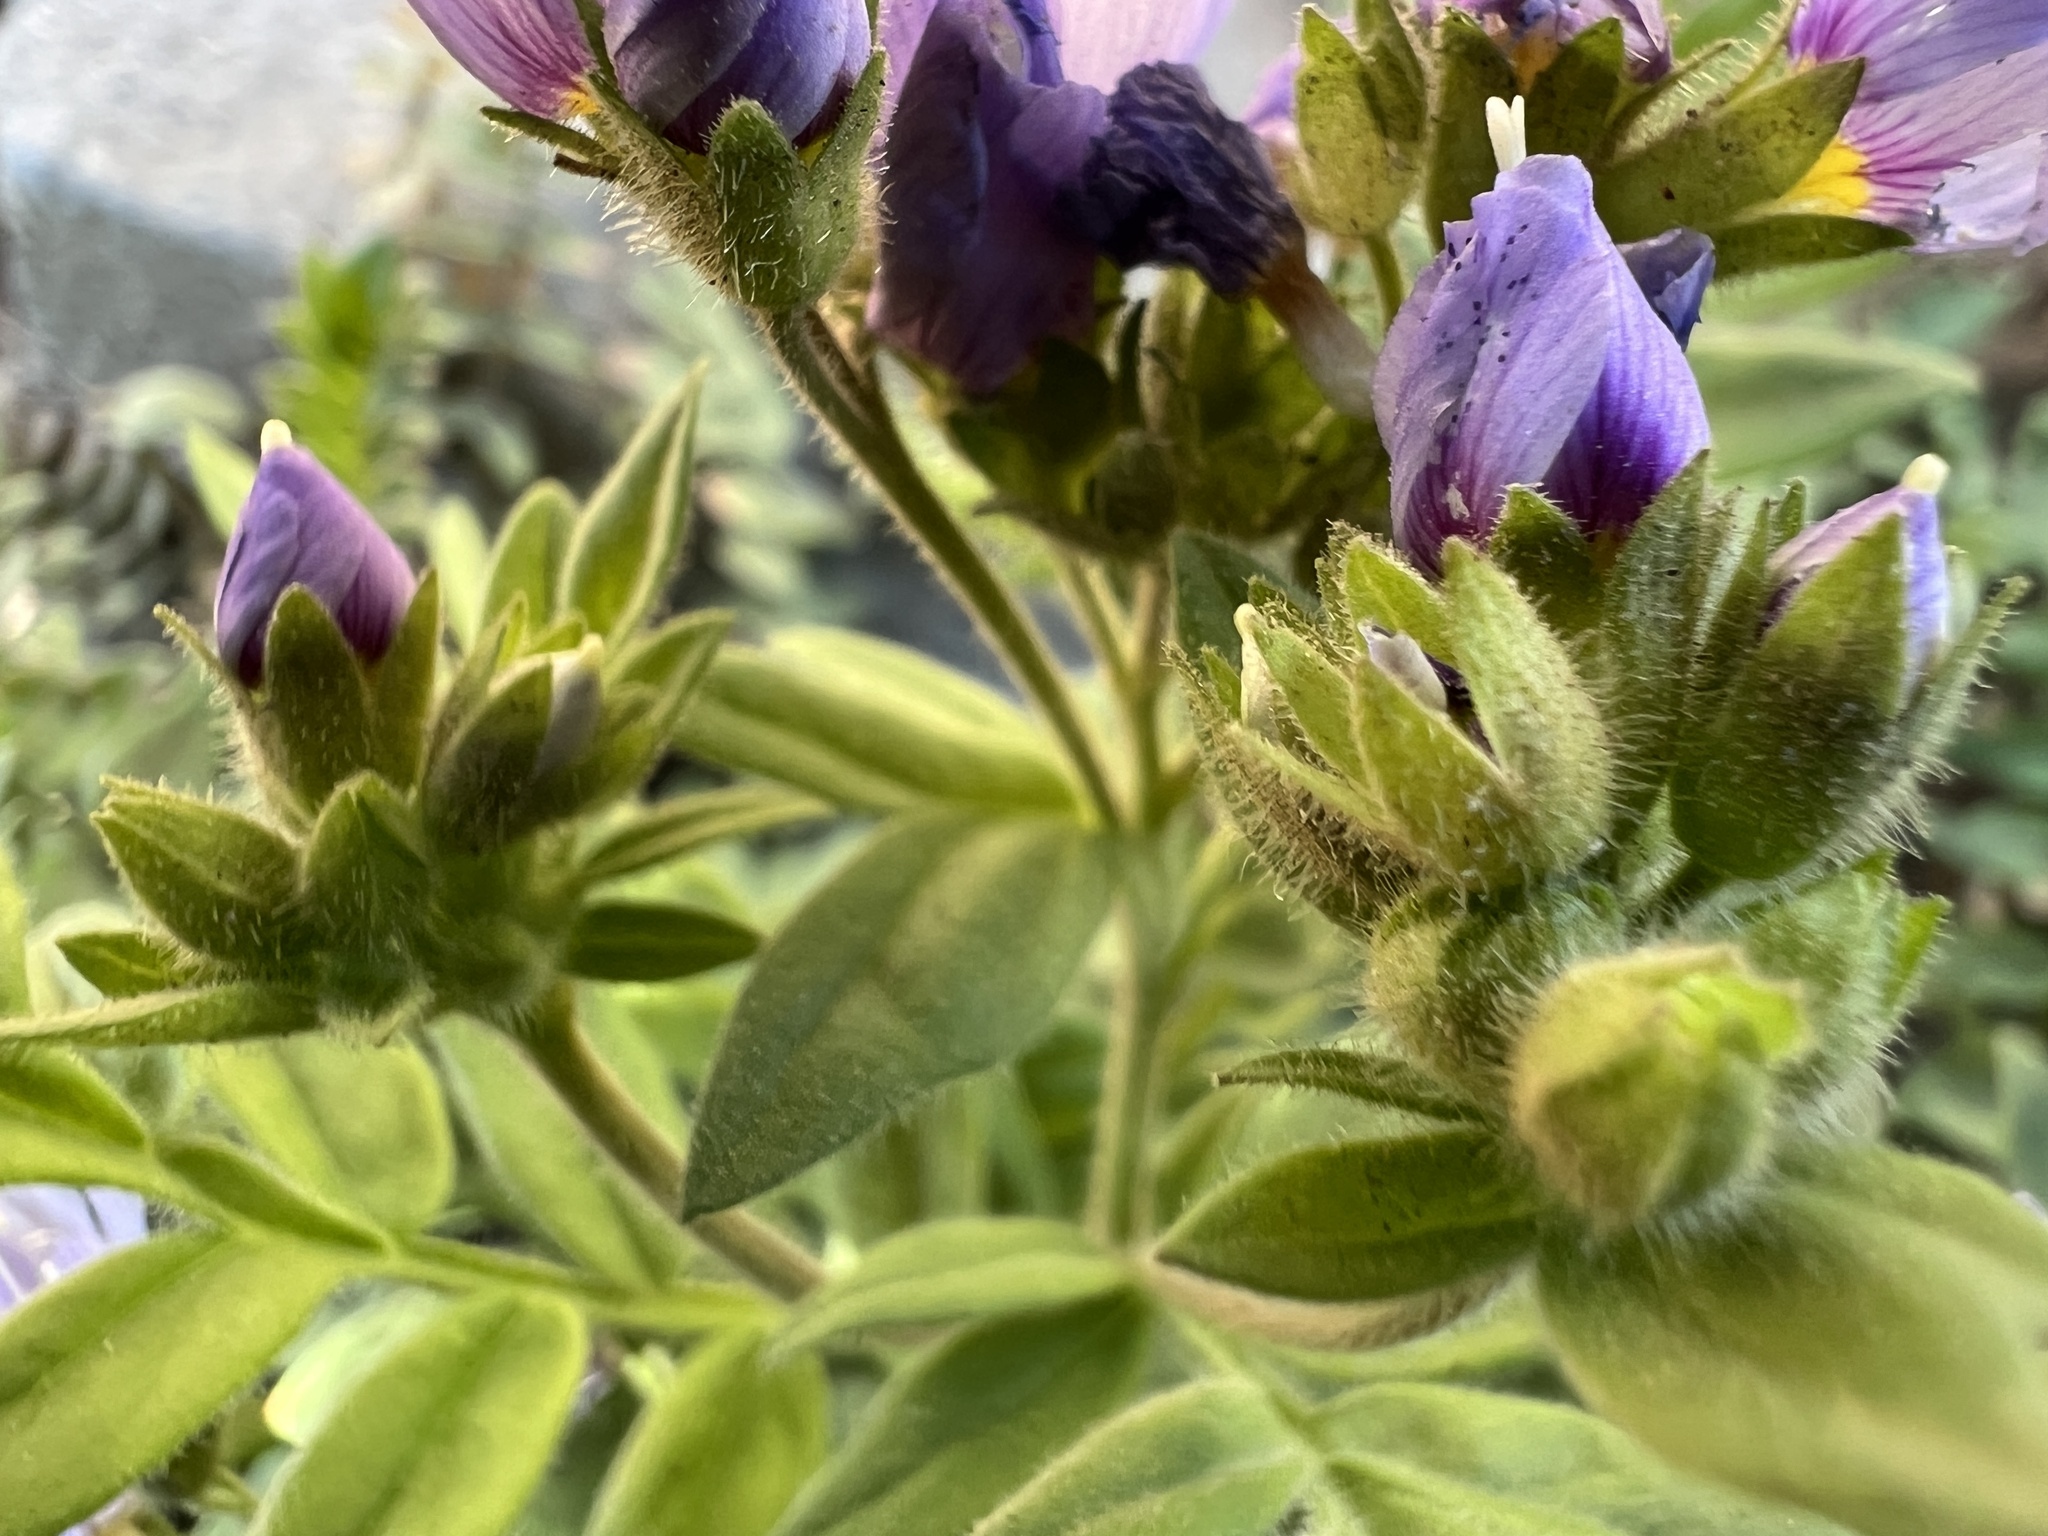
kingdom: Plantae
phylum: Tracheophyta
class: Magnoliopsida
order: Ericales
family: Polemoniaceae
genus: Polemonium
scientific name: Polemonium californicum
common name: California jacob's ladder
